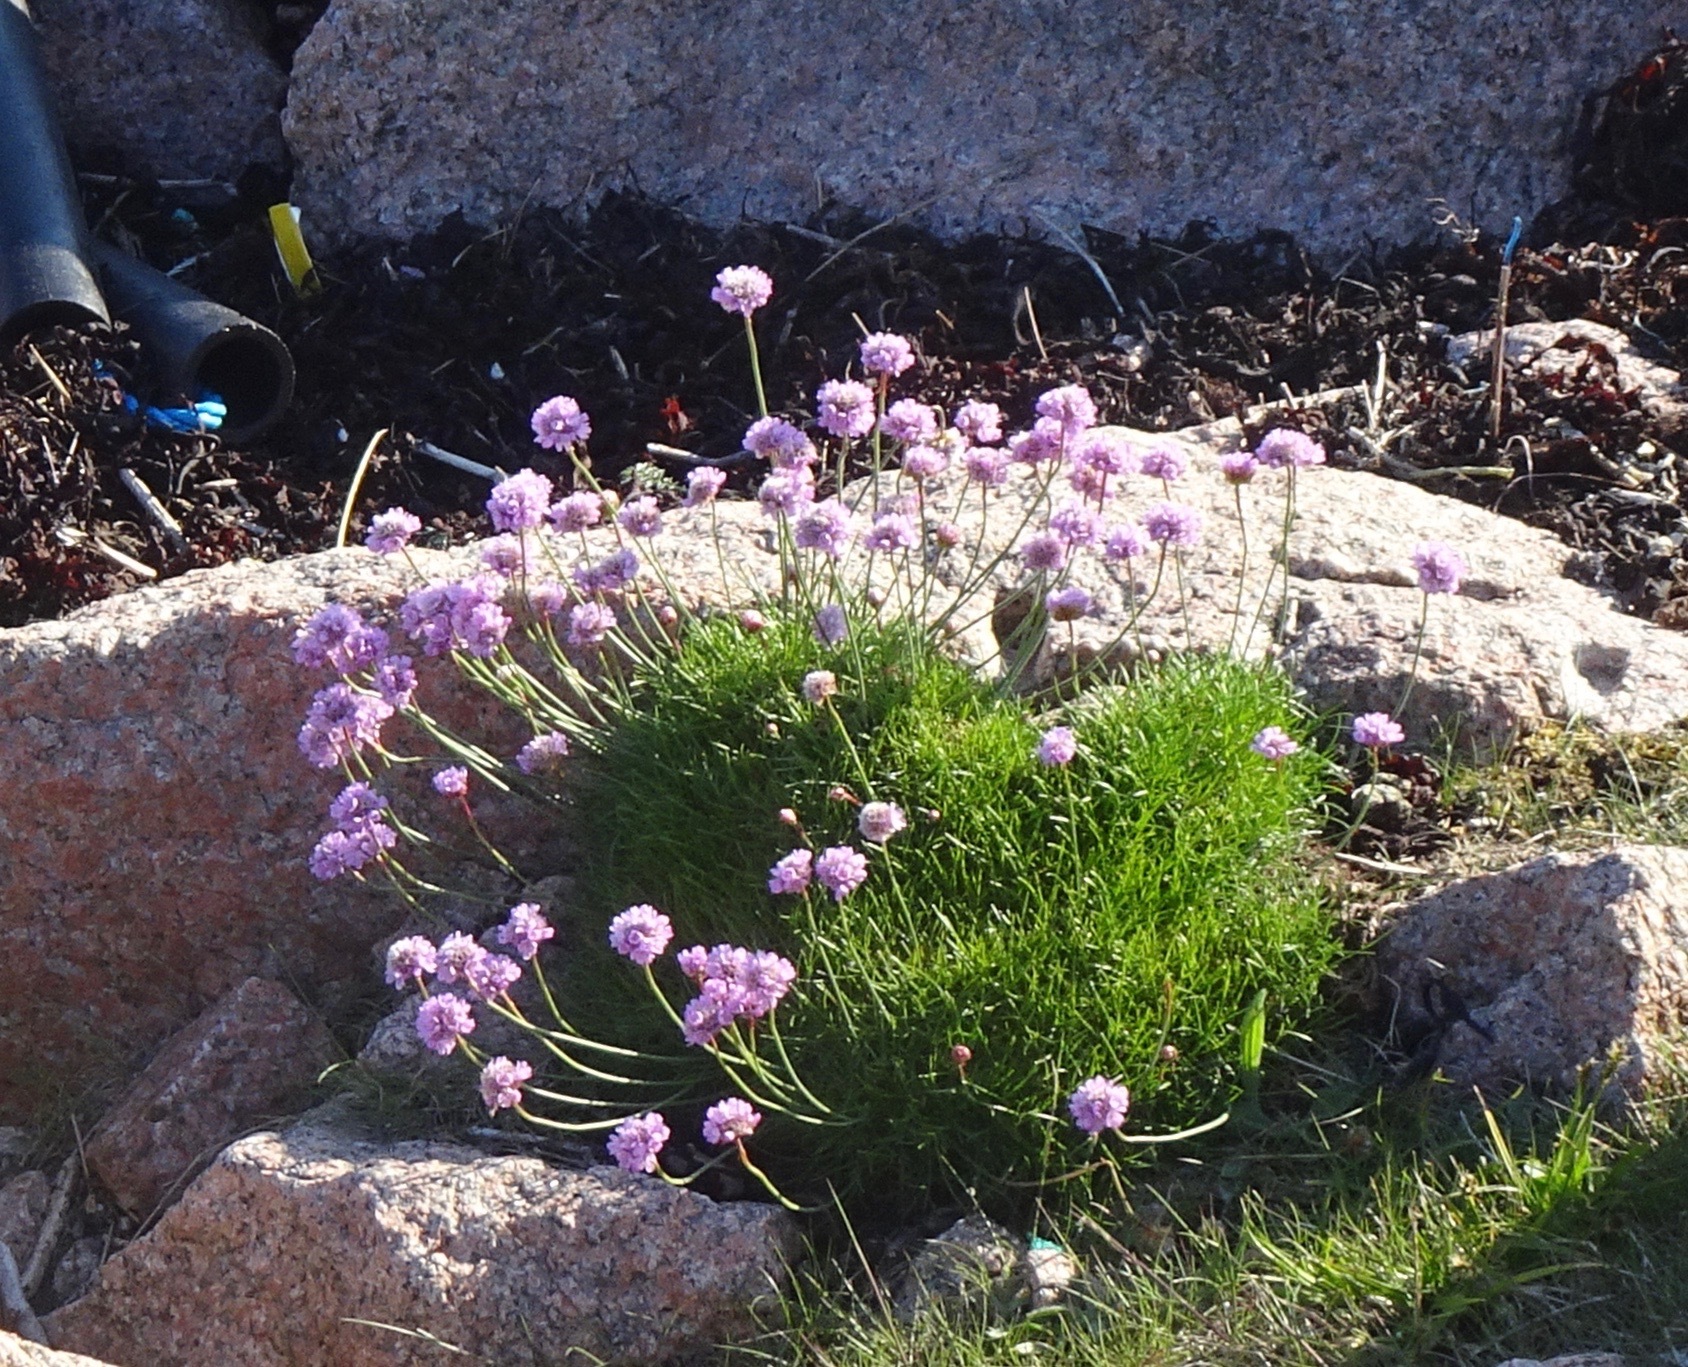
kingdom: Plantae
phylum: Tracheophyta
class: Magnoliopsida
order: Caryophyllales
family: Plumbaginaceae
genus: Armeria
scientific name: Armeria maritima
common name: Thrift
